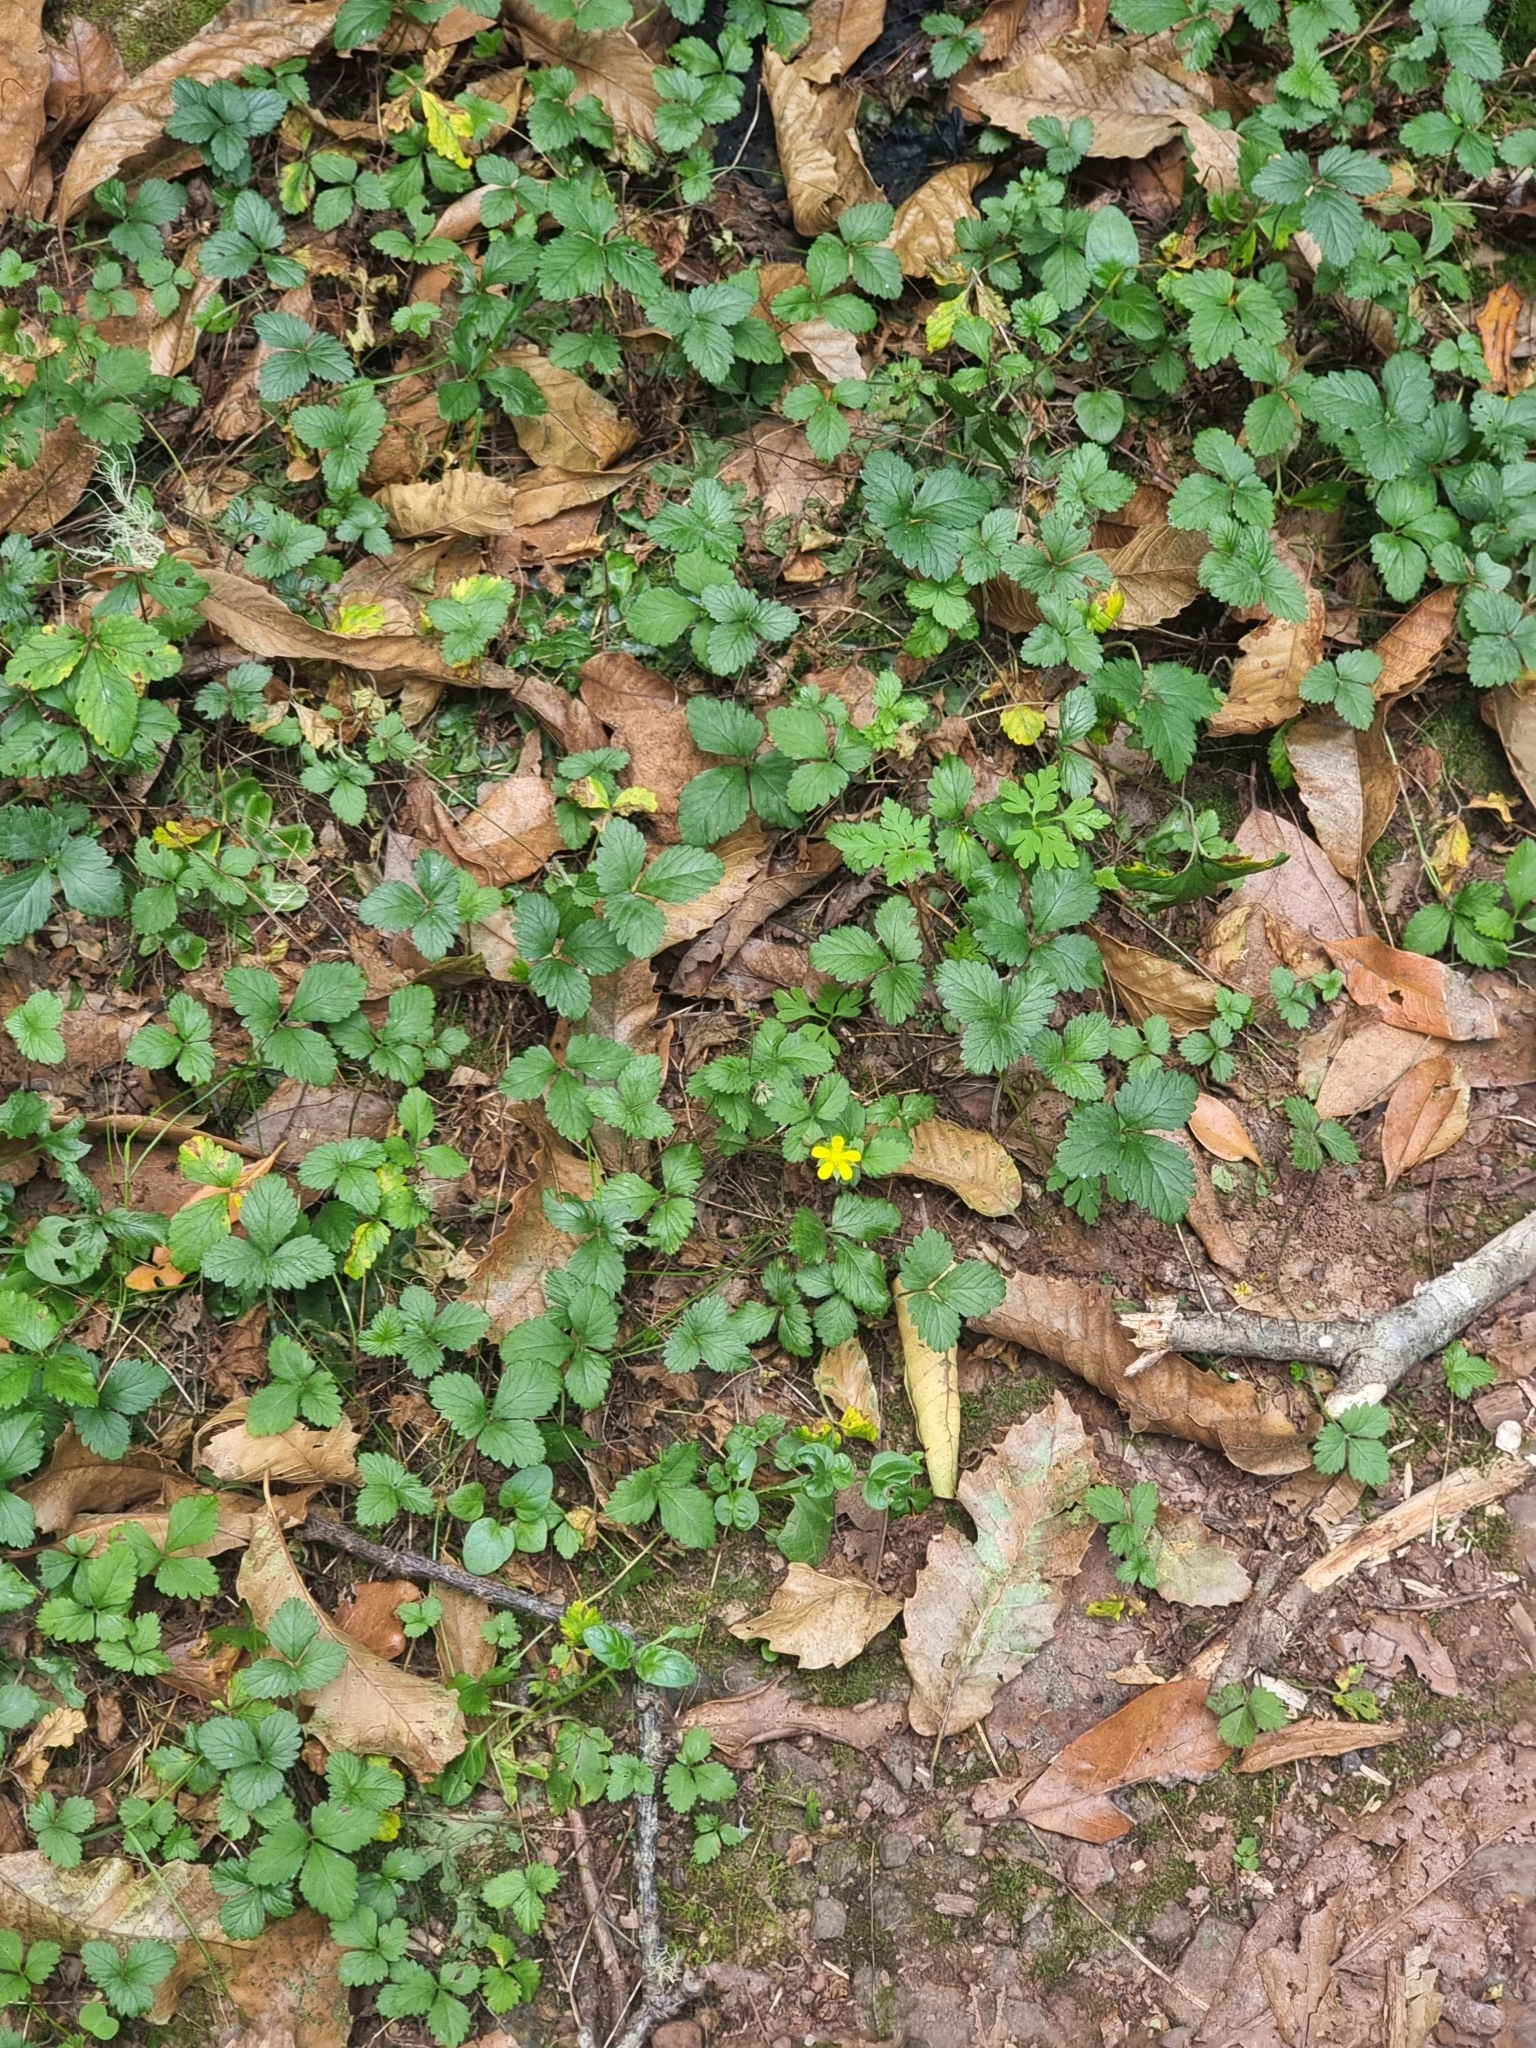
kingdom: Plantae
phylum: Tracheophyta
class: Magnoliopsida
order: Rosales
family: Rosaceae
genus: Potentilla
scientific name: Potentilla indica
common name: Yellow-flowered strawberry
